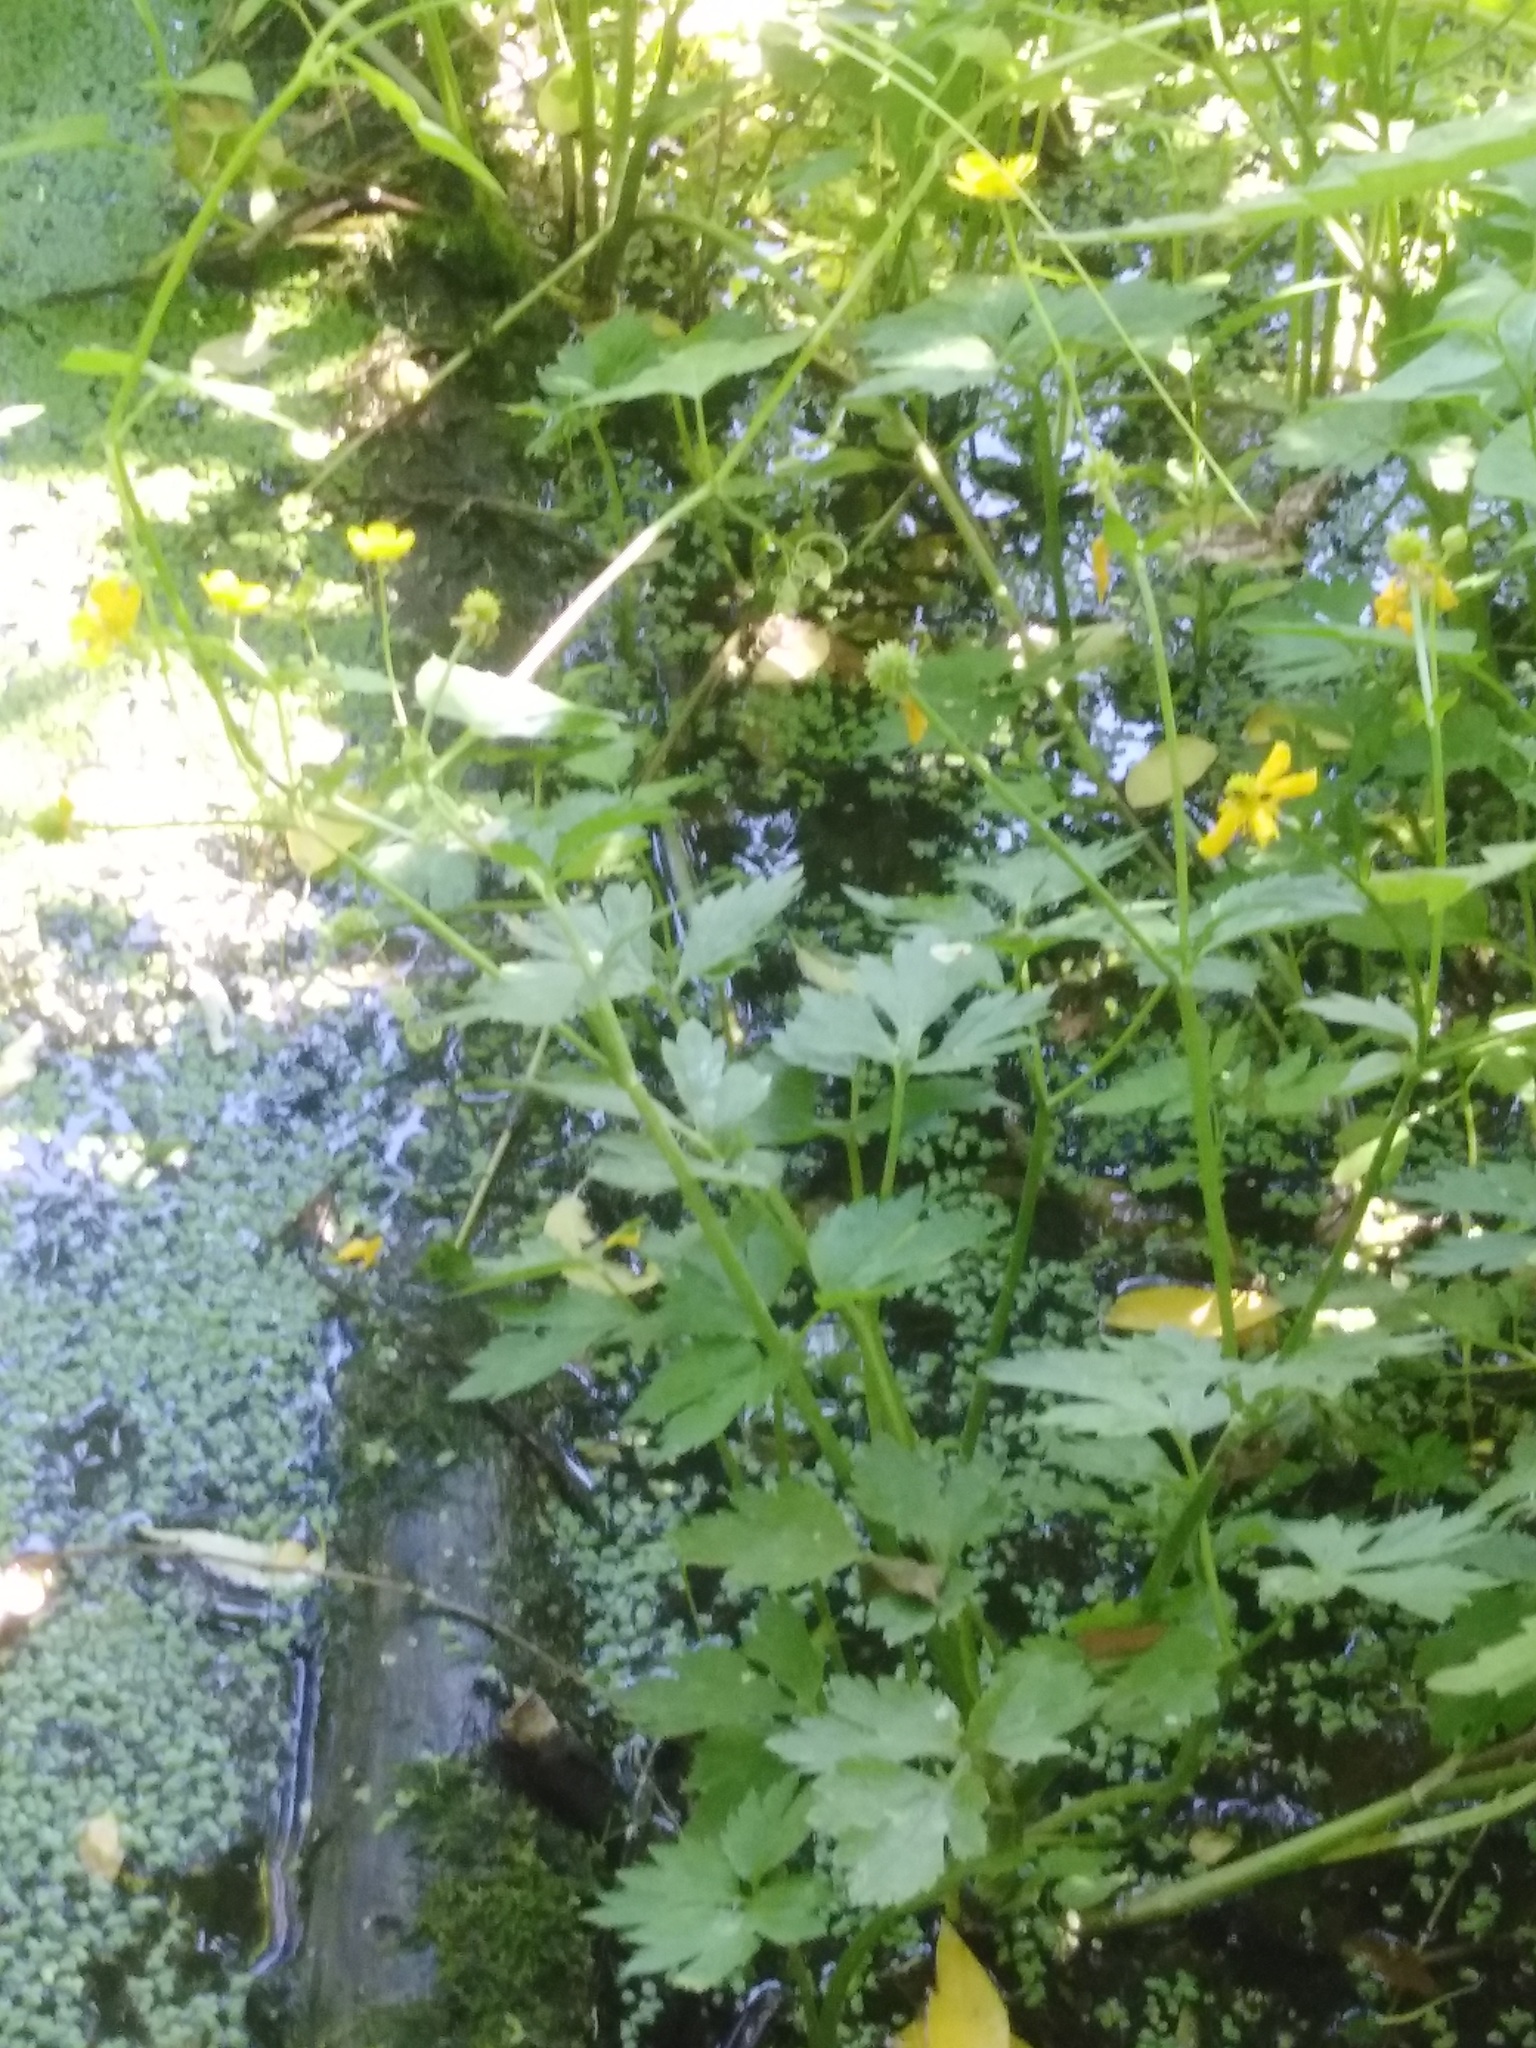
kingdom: Plantae
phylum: Tracheophyta
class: Magnoliopsida
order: Ranunculales
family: Ranunculaceae
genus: Ranunculus
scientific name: Ranunculus repens
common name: Creeping buttercup
